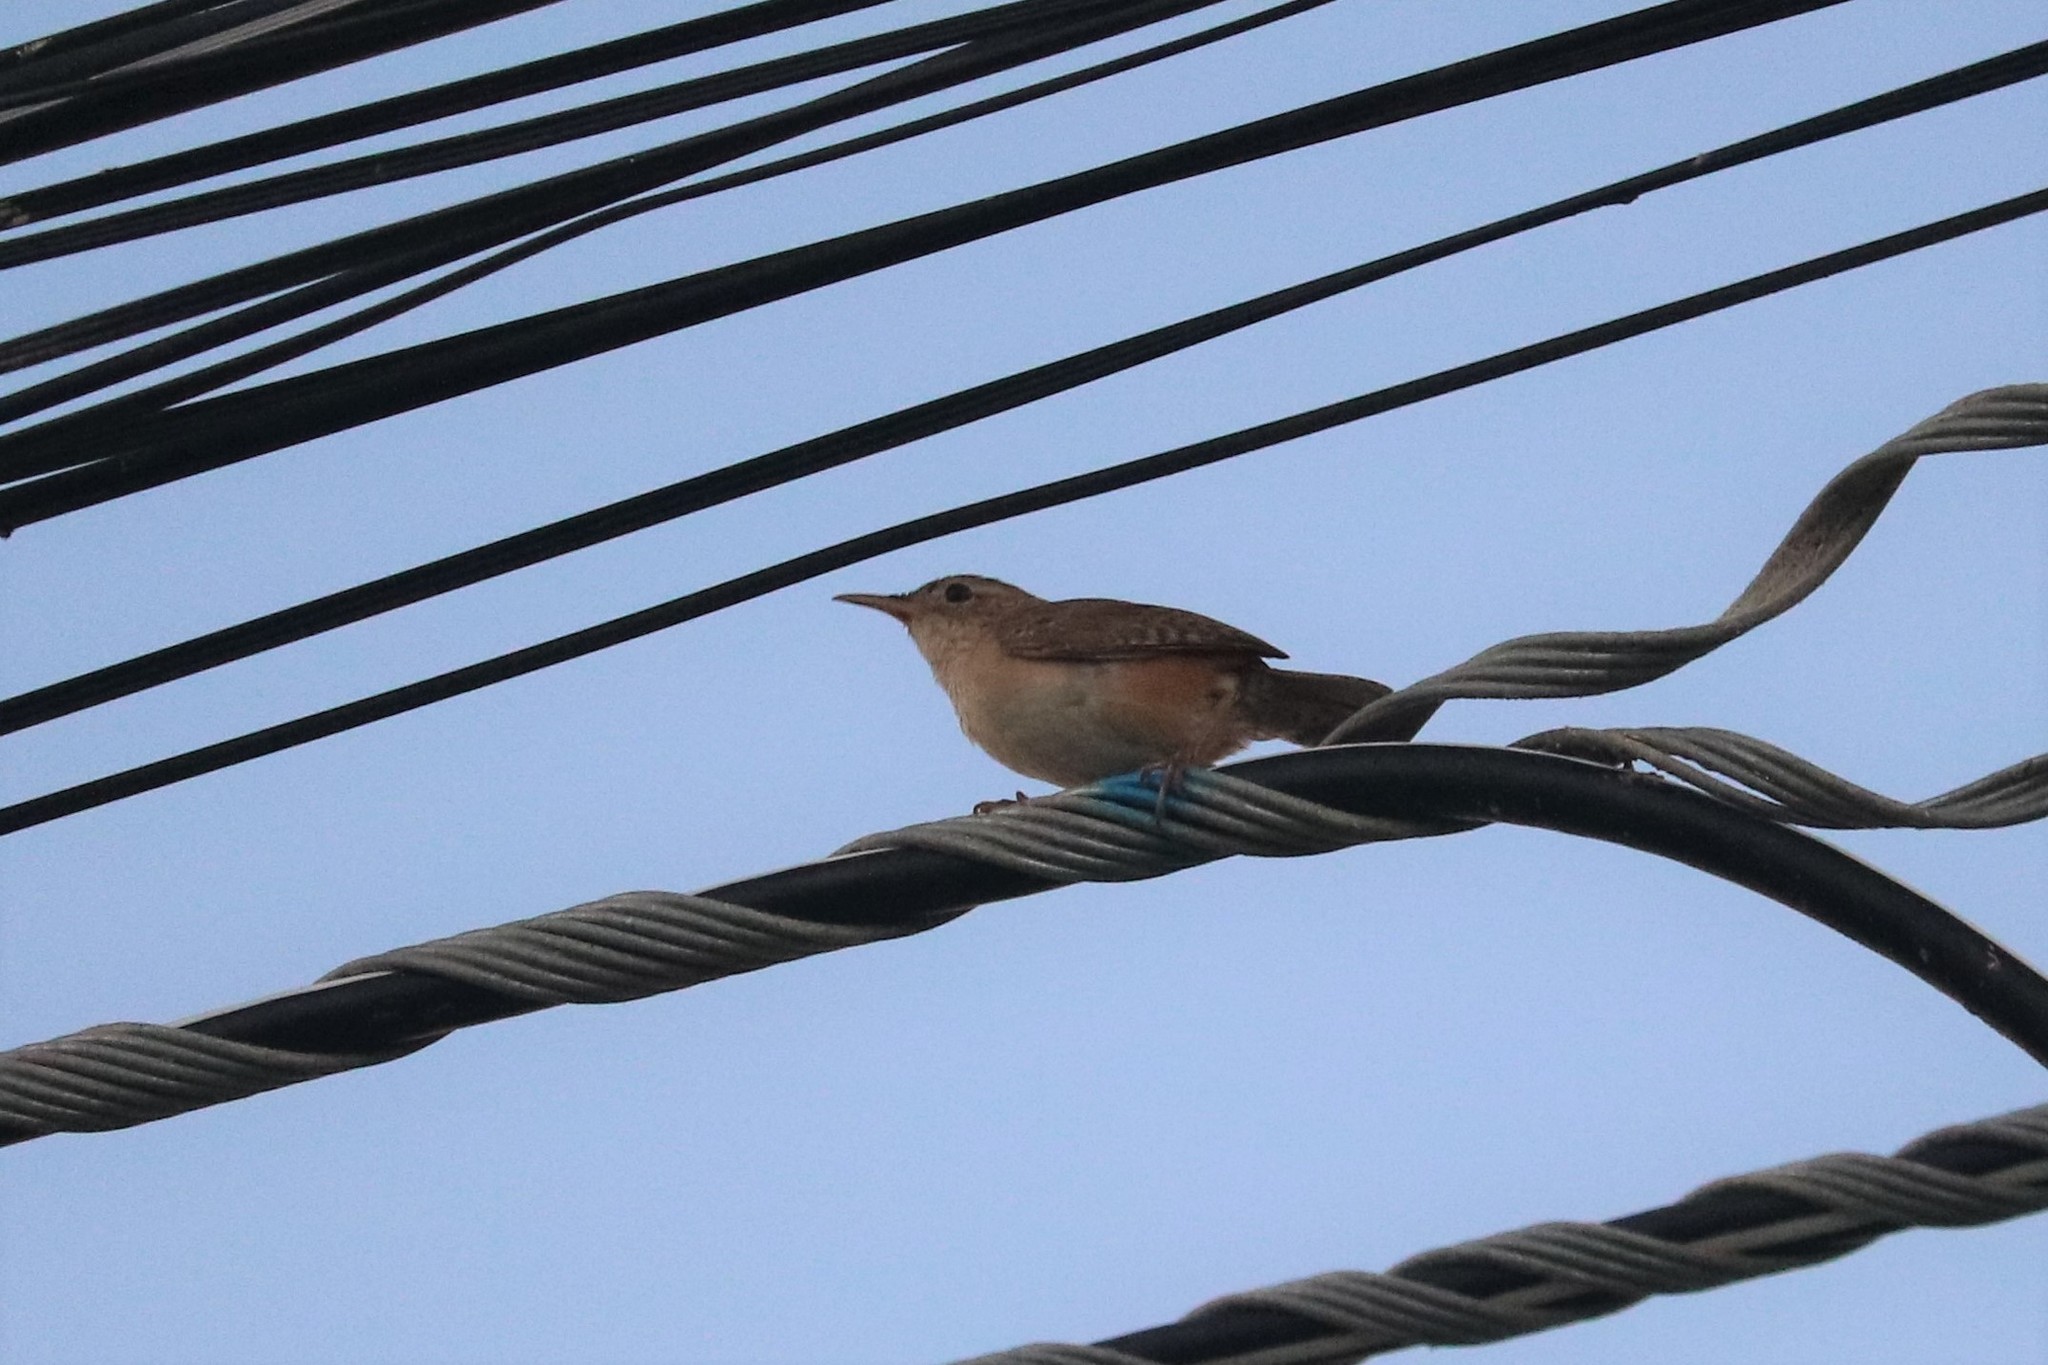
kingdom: Animalia
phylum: Chordata
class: Aves
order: Passeriformes
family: Troglodytidae
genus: Troglodytes
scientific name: Troglodytes aedon
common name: House wren
